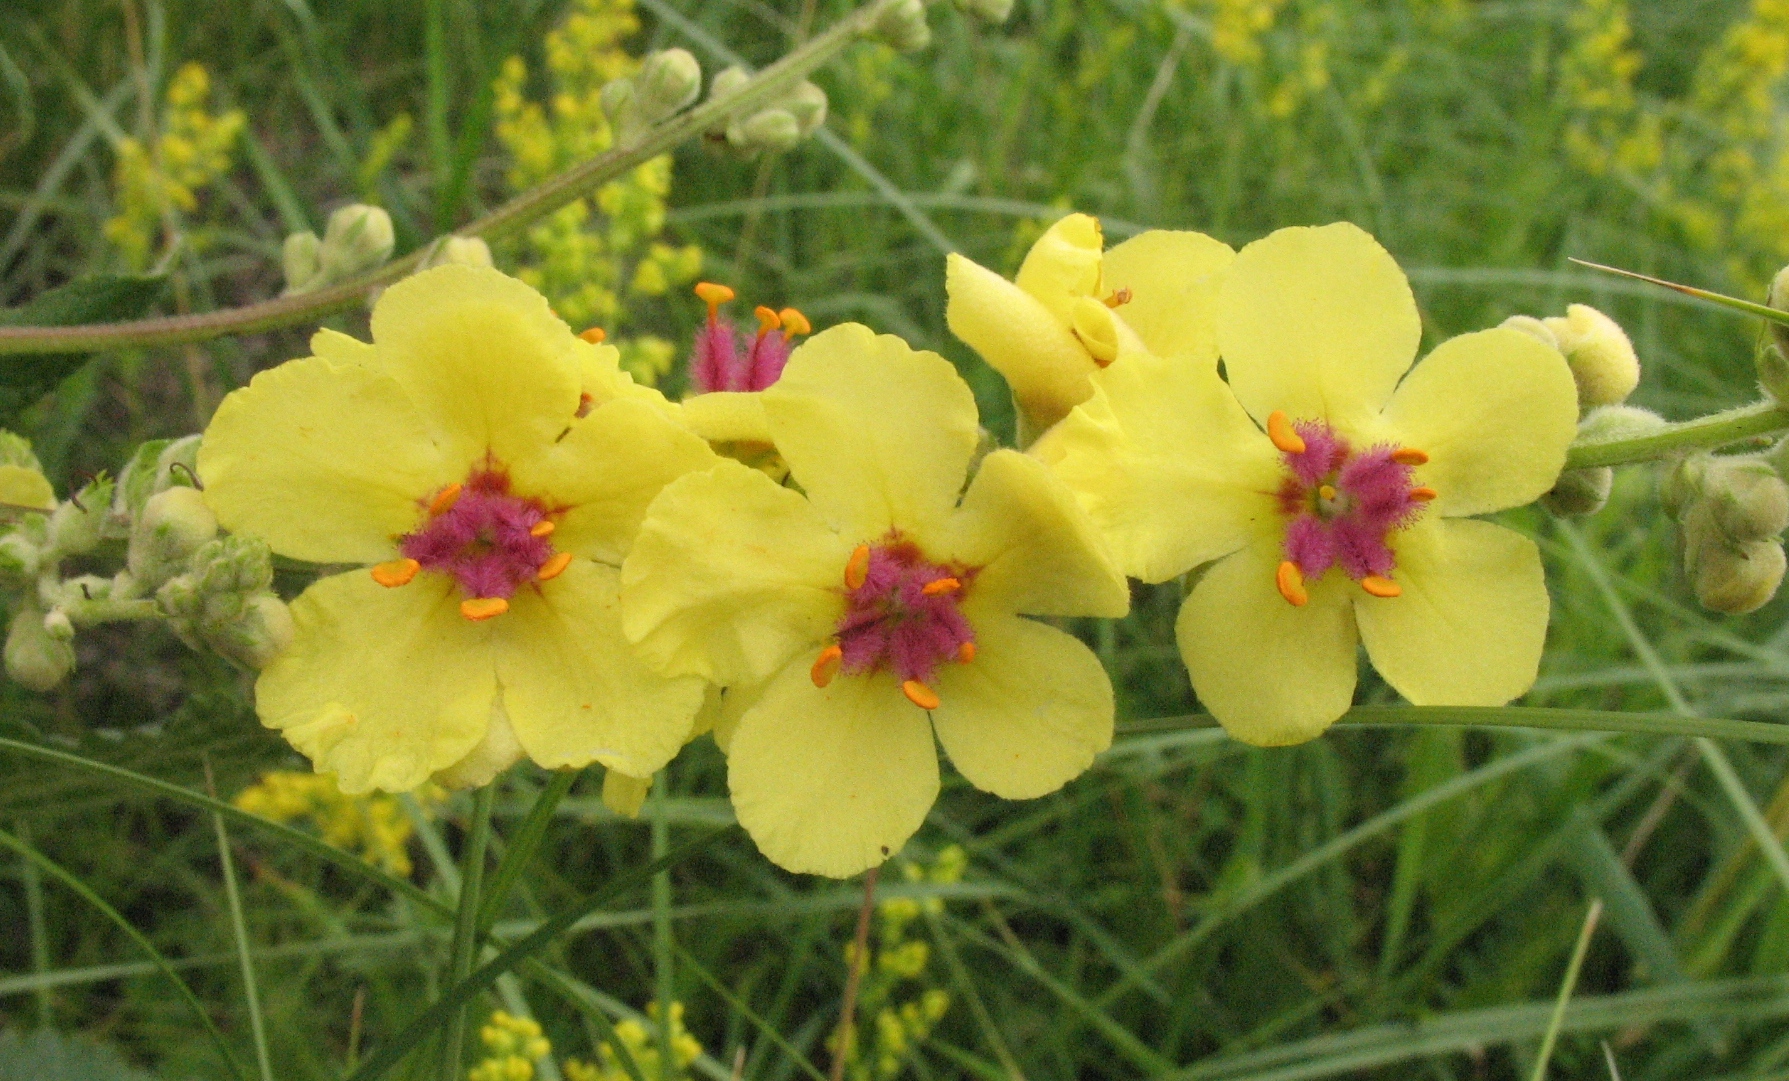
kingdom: Plantae
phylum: Tracheophyta
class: Magnoliopsida
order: Lamiales
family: Scrophulariaceae
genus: Verbascum
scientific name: Verbascum chaixii
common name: Nettle-leaved mullein
